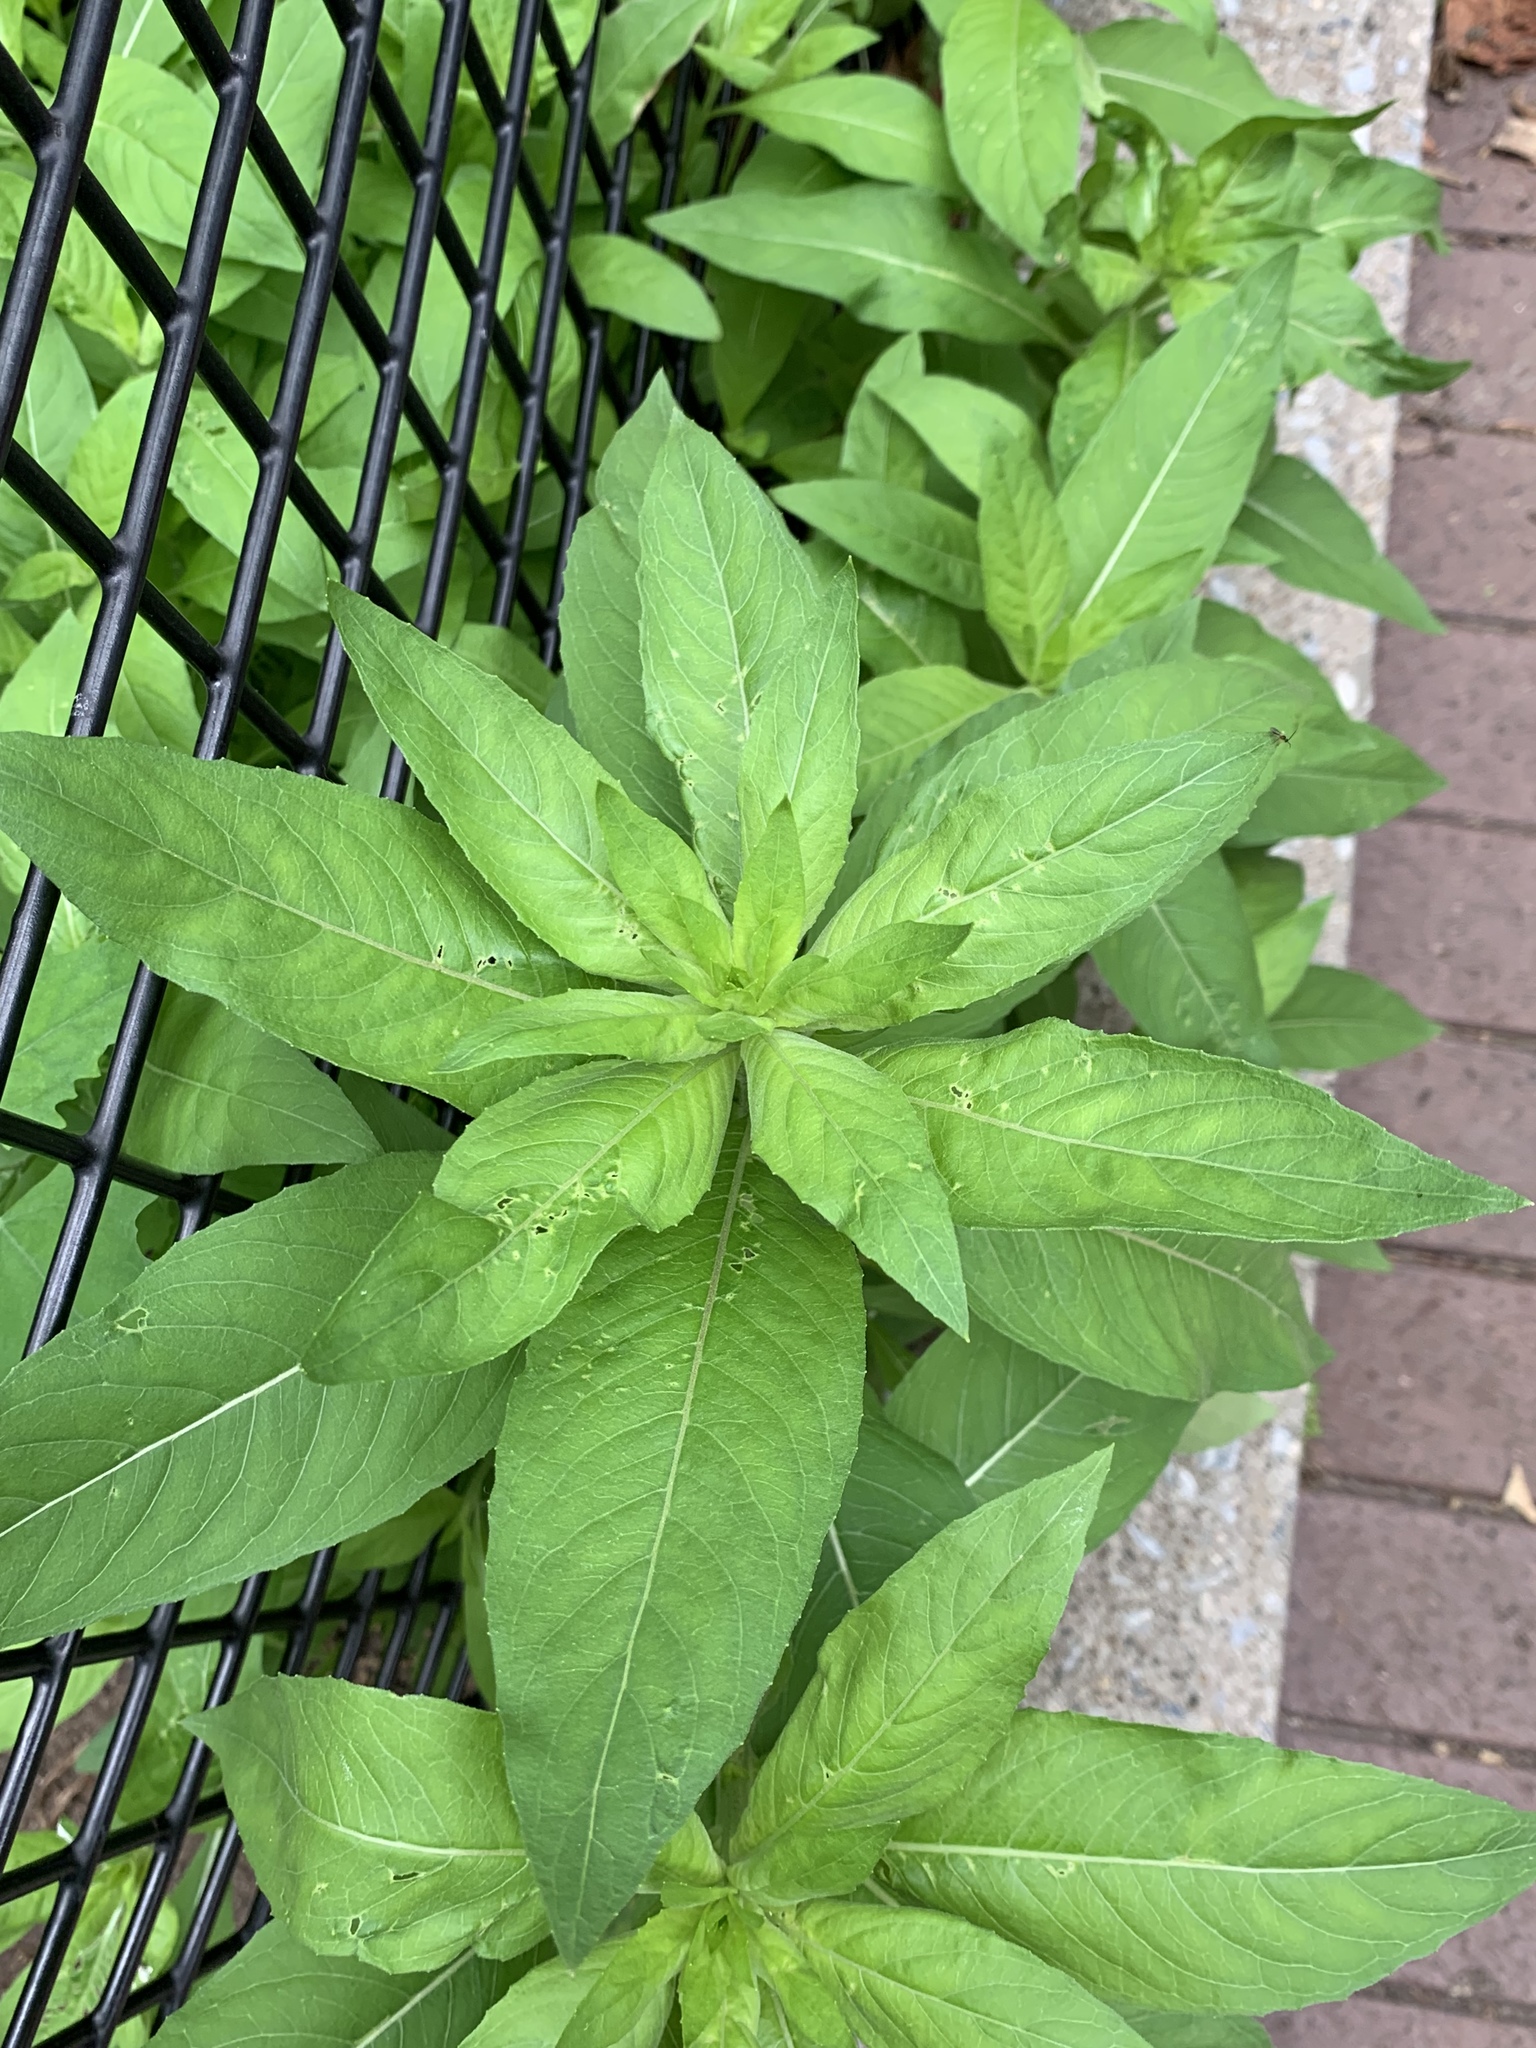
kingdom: Plantae
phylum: Tracheophyta
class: Magnoliopsida
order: Myrtales
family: Onagraceae
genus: Oenothera
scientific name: Oenothera biennis
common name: Common evening-primrose
